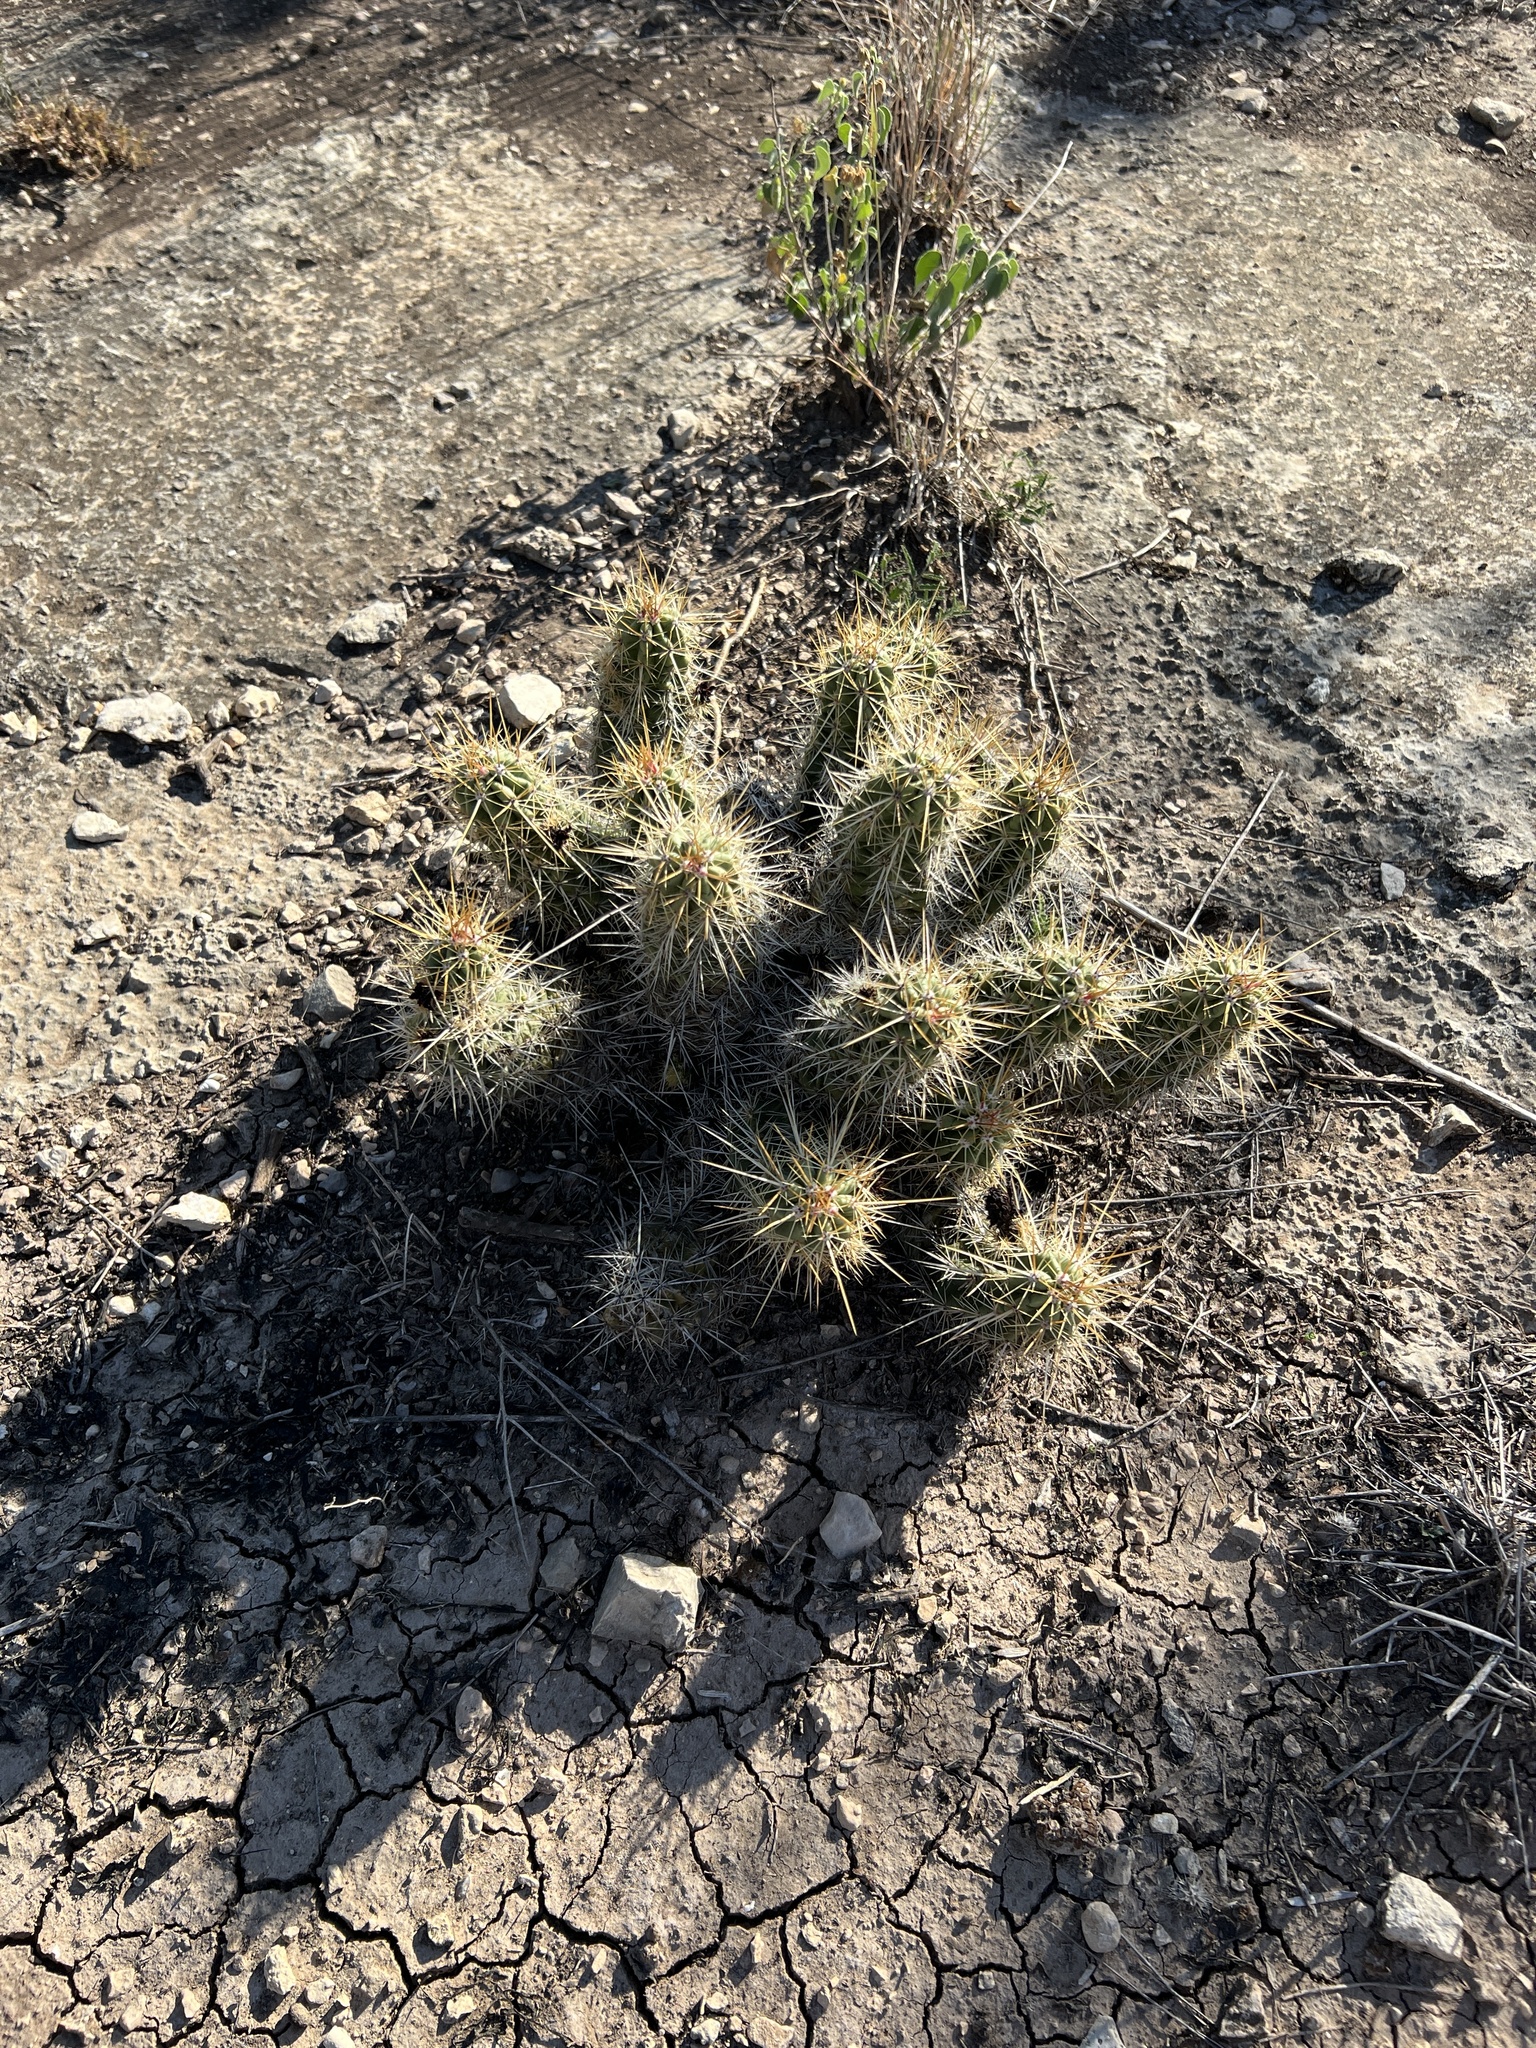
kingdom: Plantae
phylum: Tracheophyta
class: Magnoliopsida
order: Caryophyllales
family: Cactaceae
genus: Echinocereus
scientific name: Echinocereus enneacanthus
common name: Pitaya
